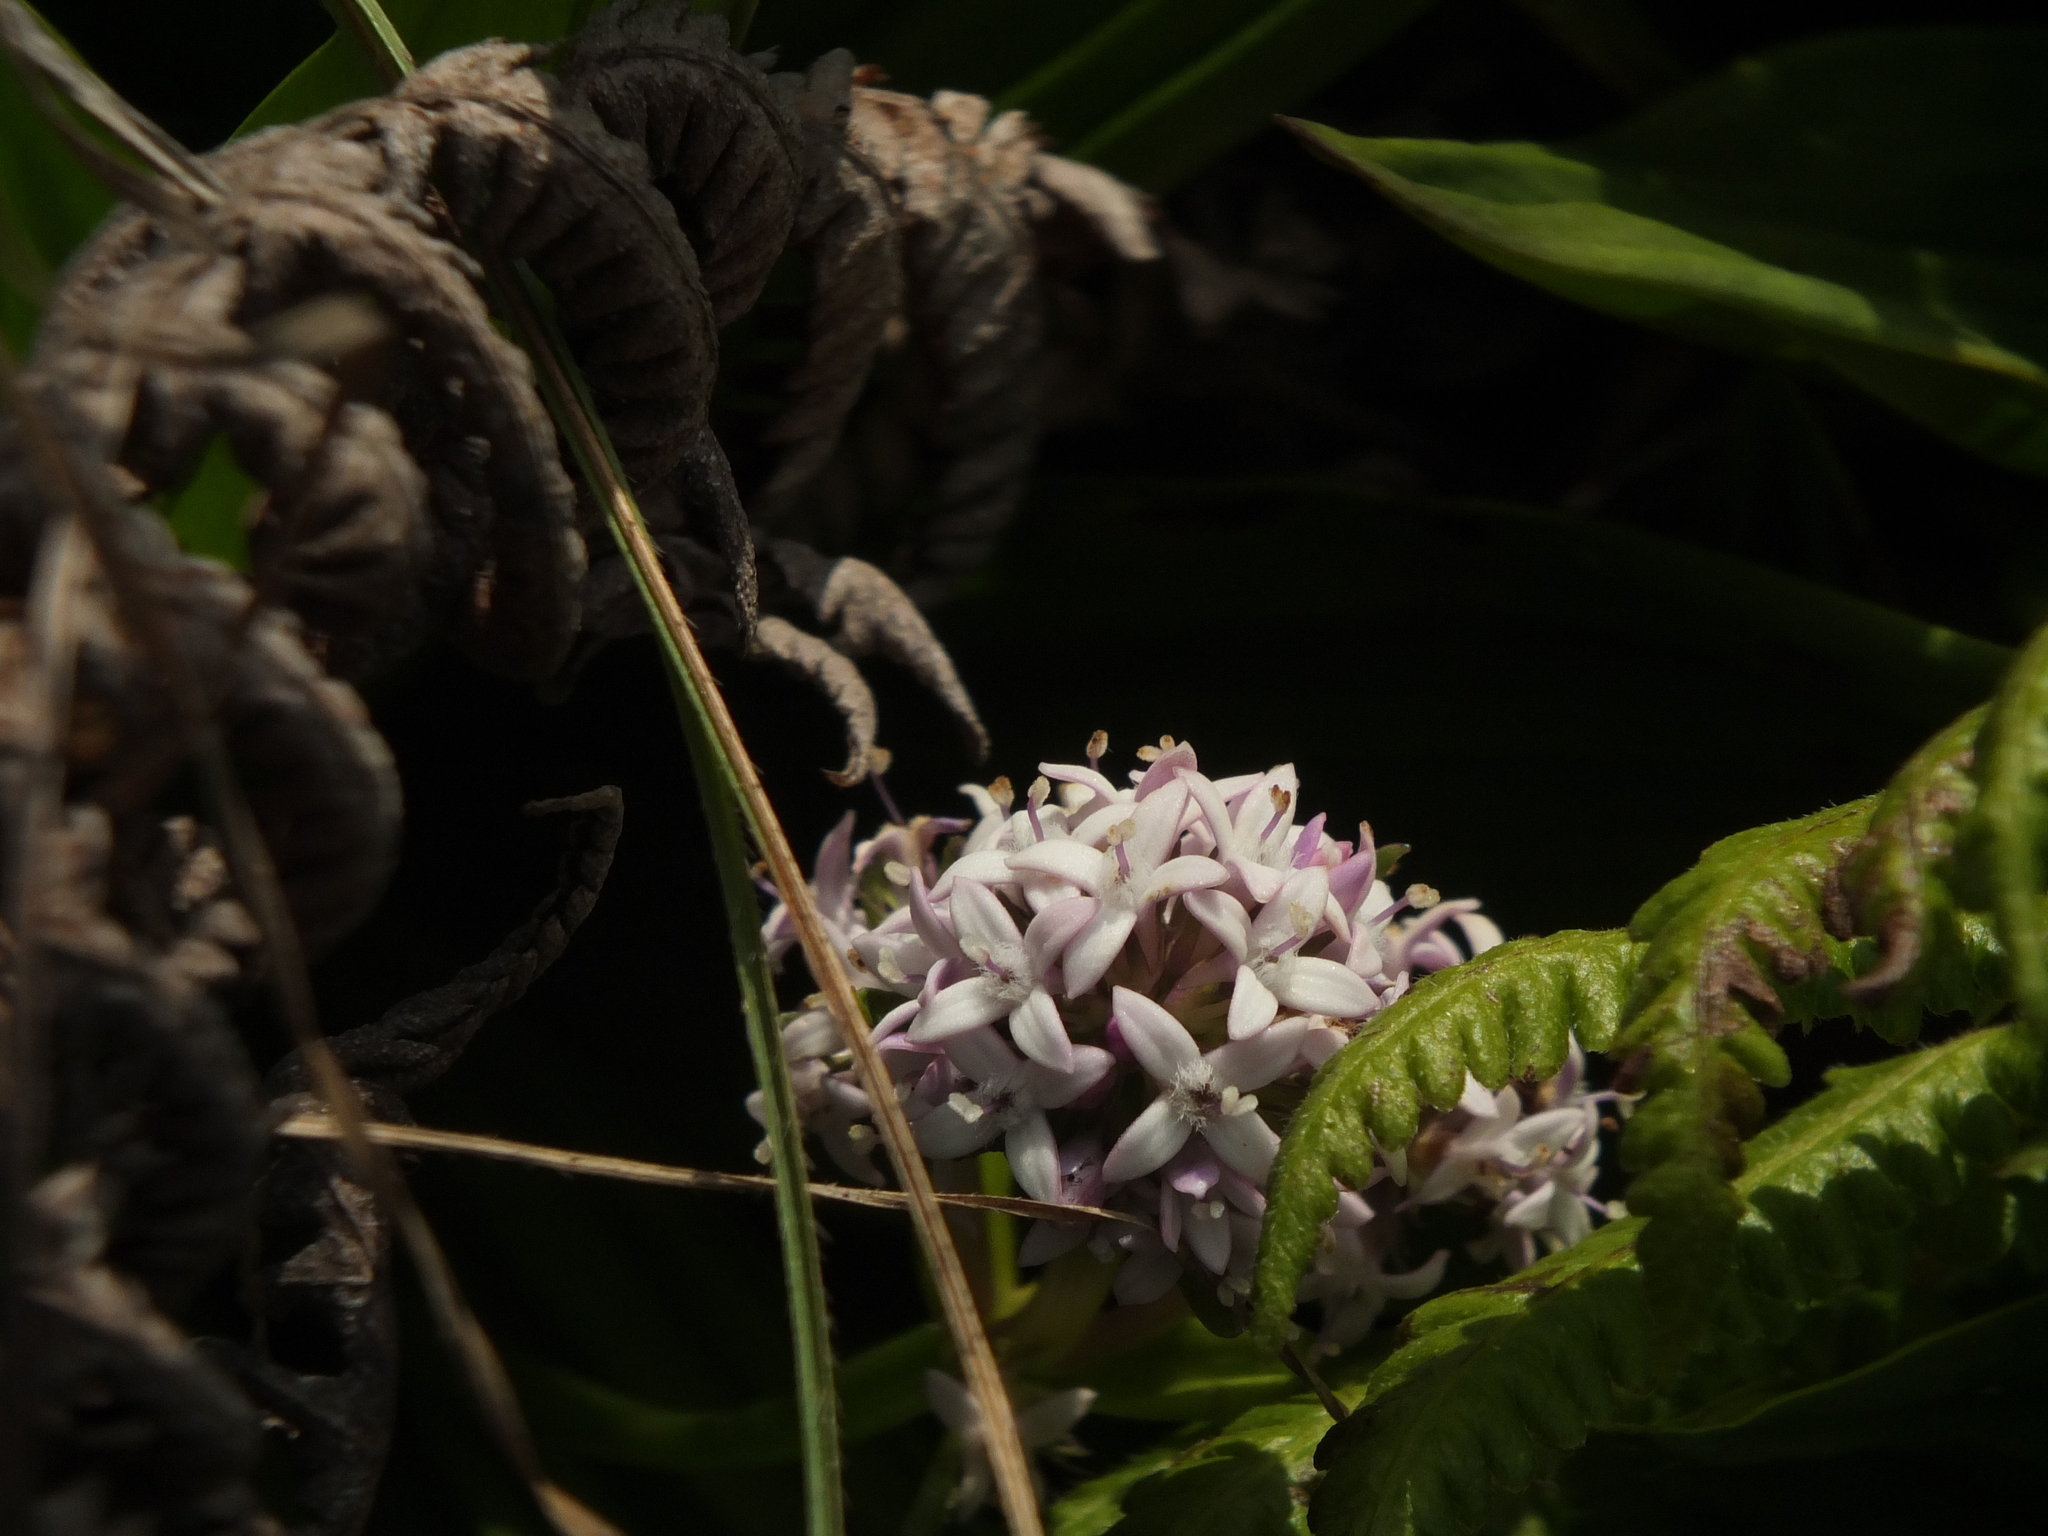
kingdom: Plantae
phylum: Tracheophyta
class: Magnoliopsida
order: Gentianales
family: Rubiaceae
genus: Hedyotis
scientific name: Hedyotis verticillaris
